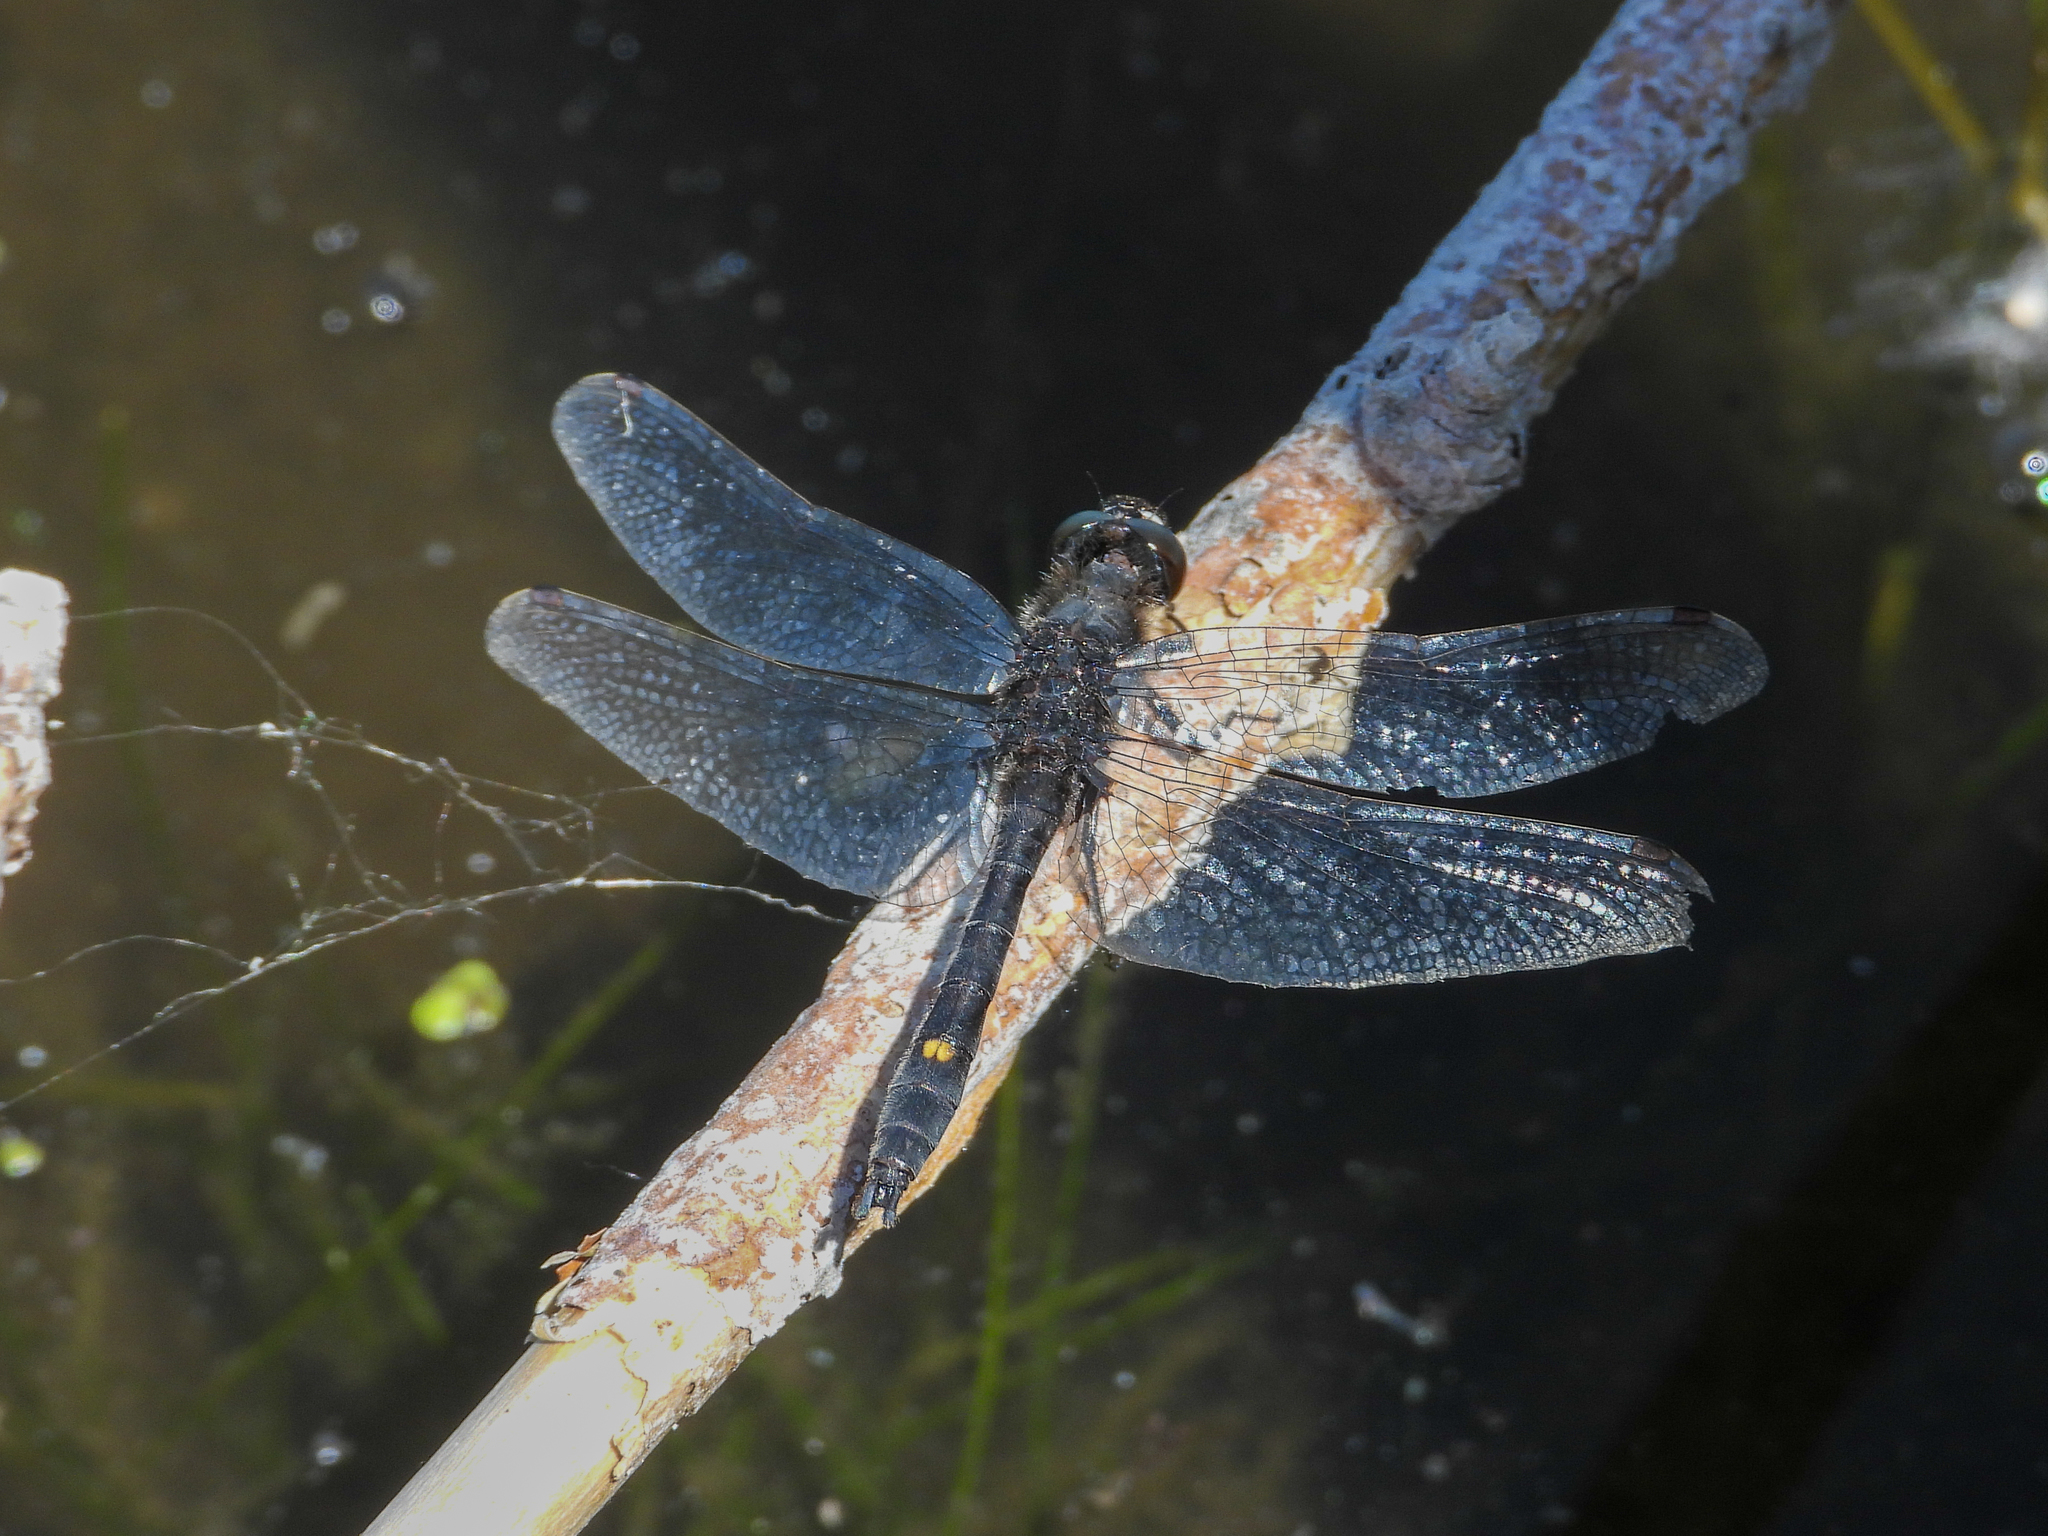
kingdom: Animalia
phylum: Arthropoda
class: Insecta
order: Odonata
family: Libellulidae
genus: Leucorrhinia
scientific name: Leucorrhinia intacta
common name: Dot-tailed whiteface
